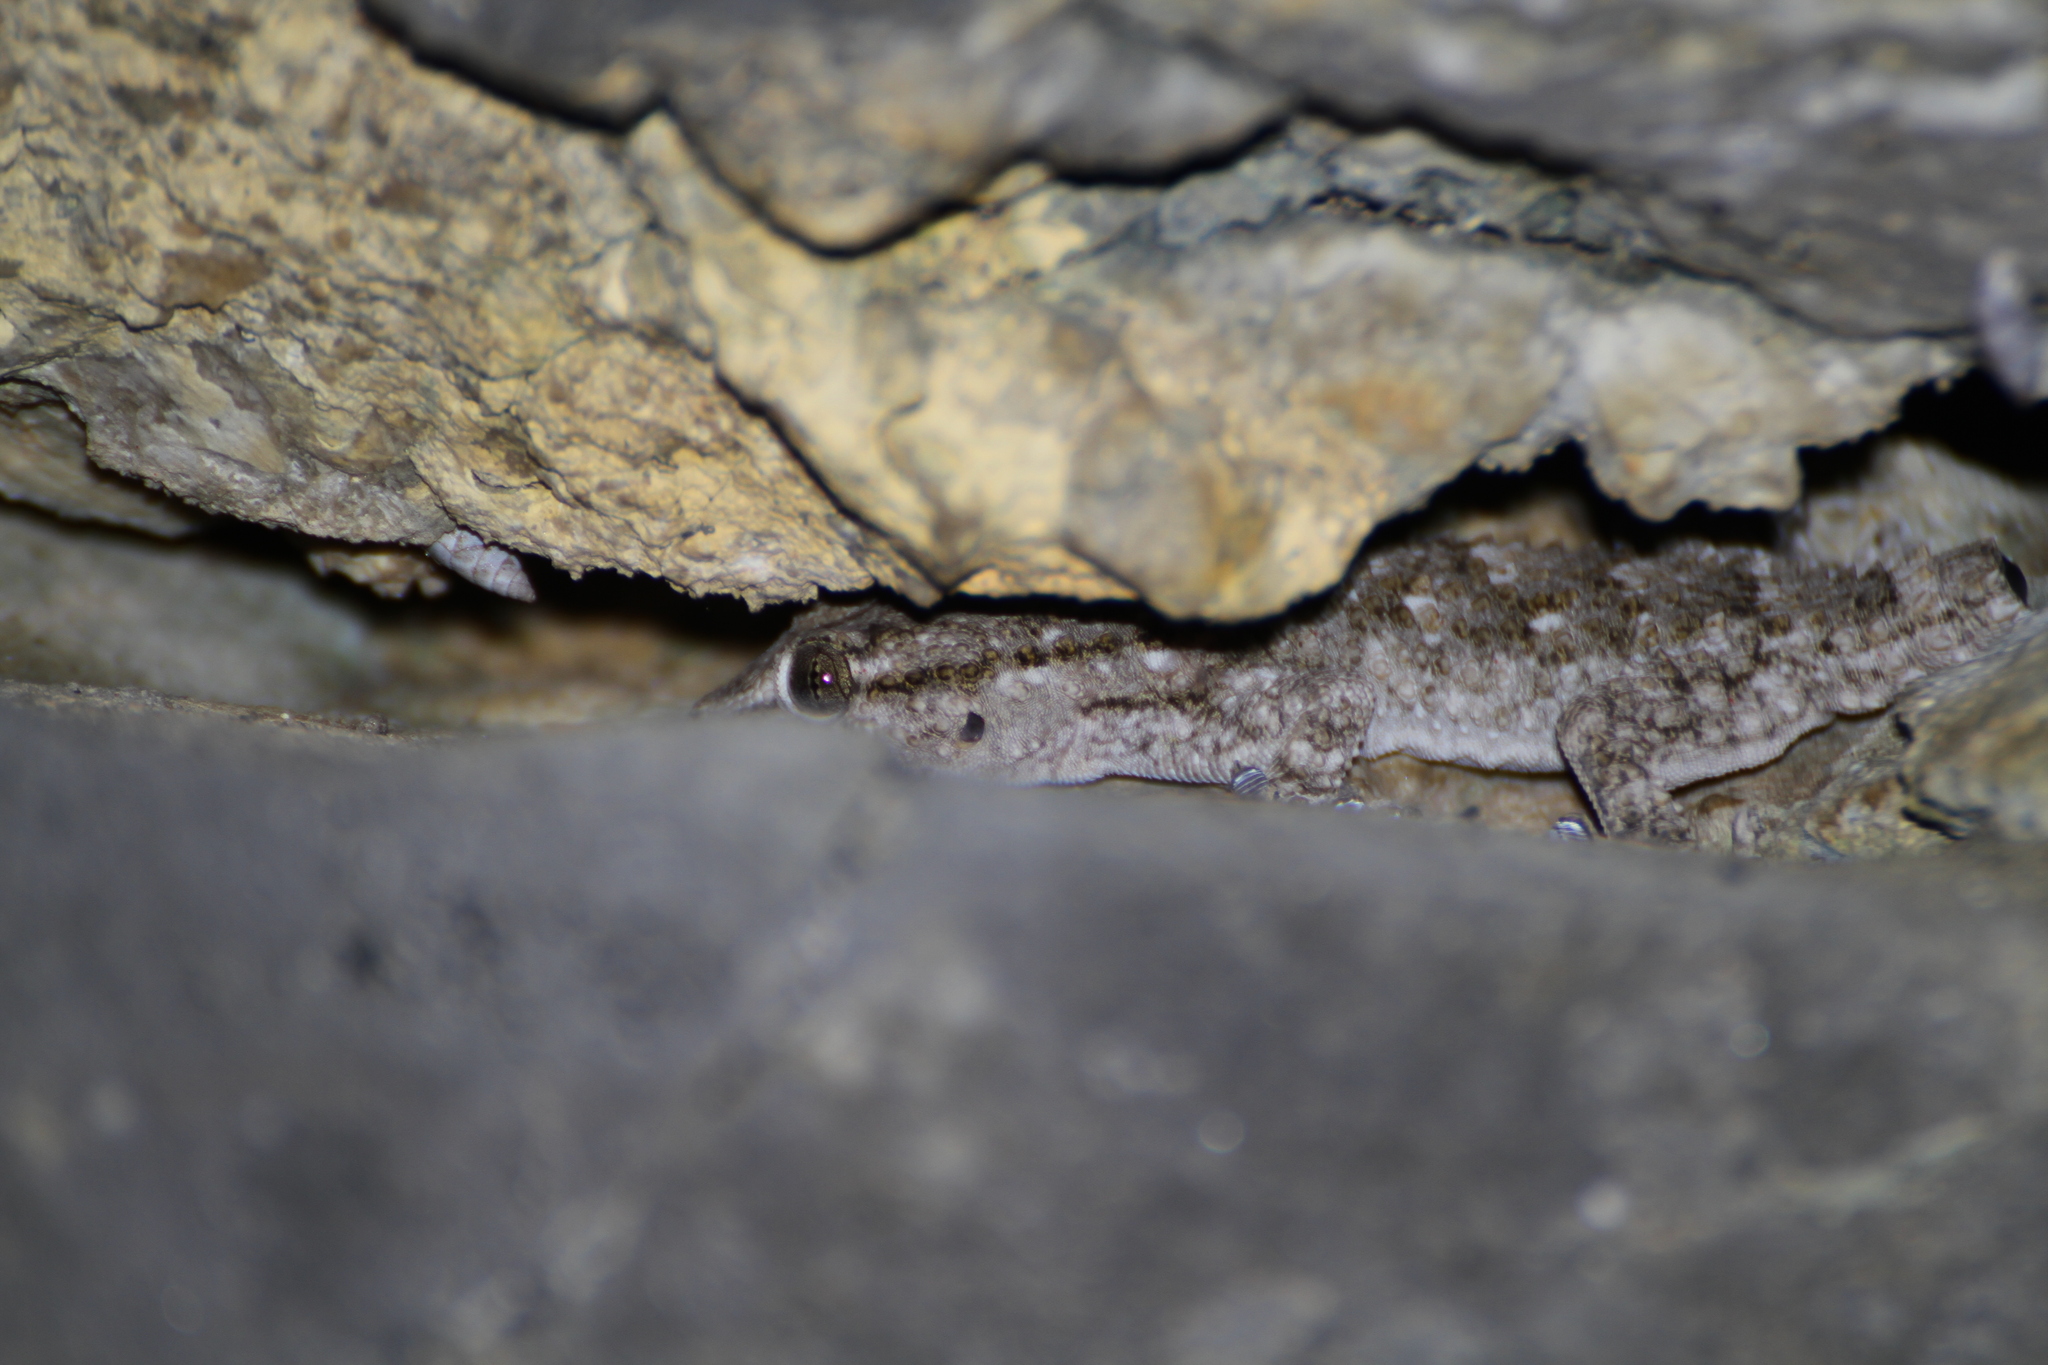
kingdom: Animalia
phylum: Chordata
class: Squamata
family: Phyllodactylidae
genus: Tarentola
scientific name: Tarentola mauritanica
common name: Moorish gecko
